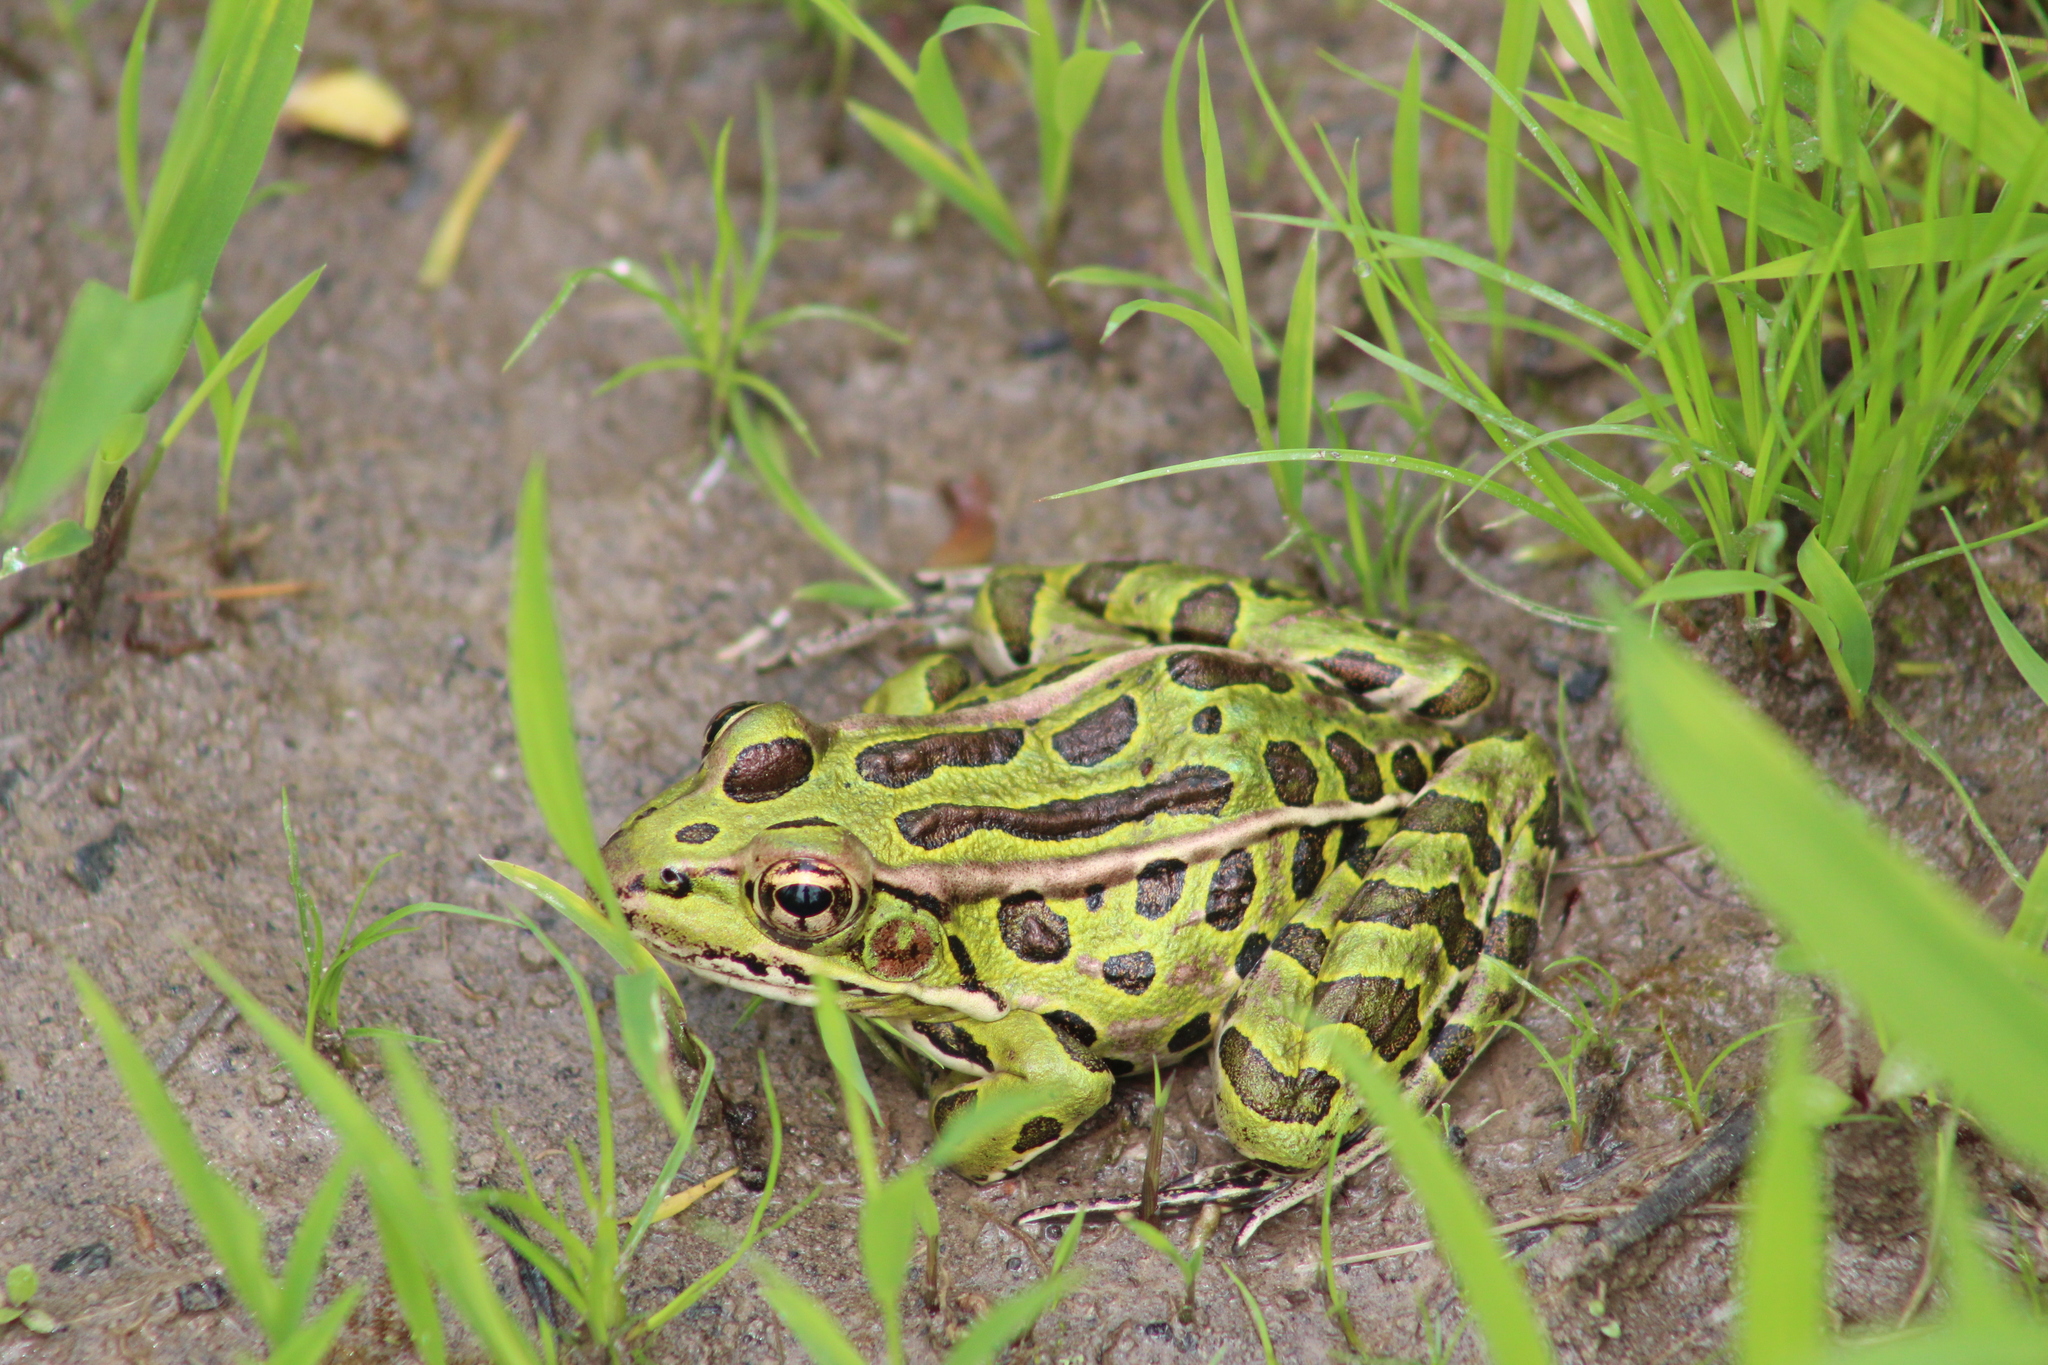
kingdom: Animalia
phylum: Chordata
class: Amphibia
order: Anura
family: Ranidae
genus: Lithobates
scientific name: Lithobates pipiens
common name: Northern leopard frog
